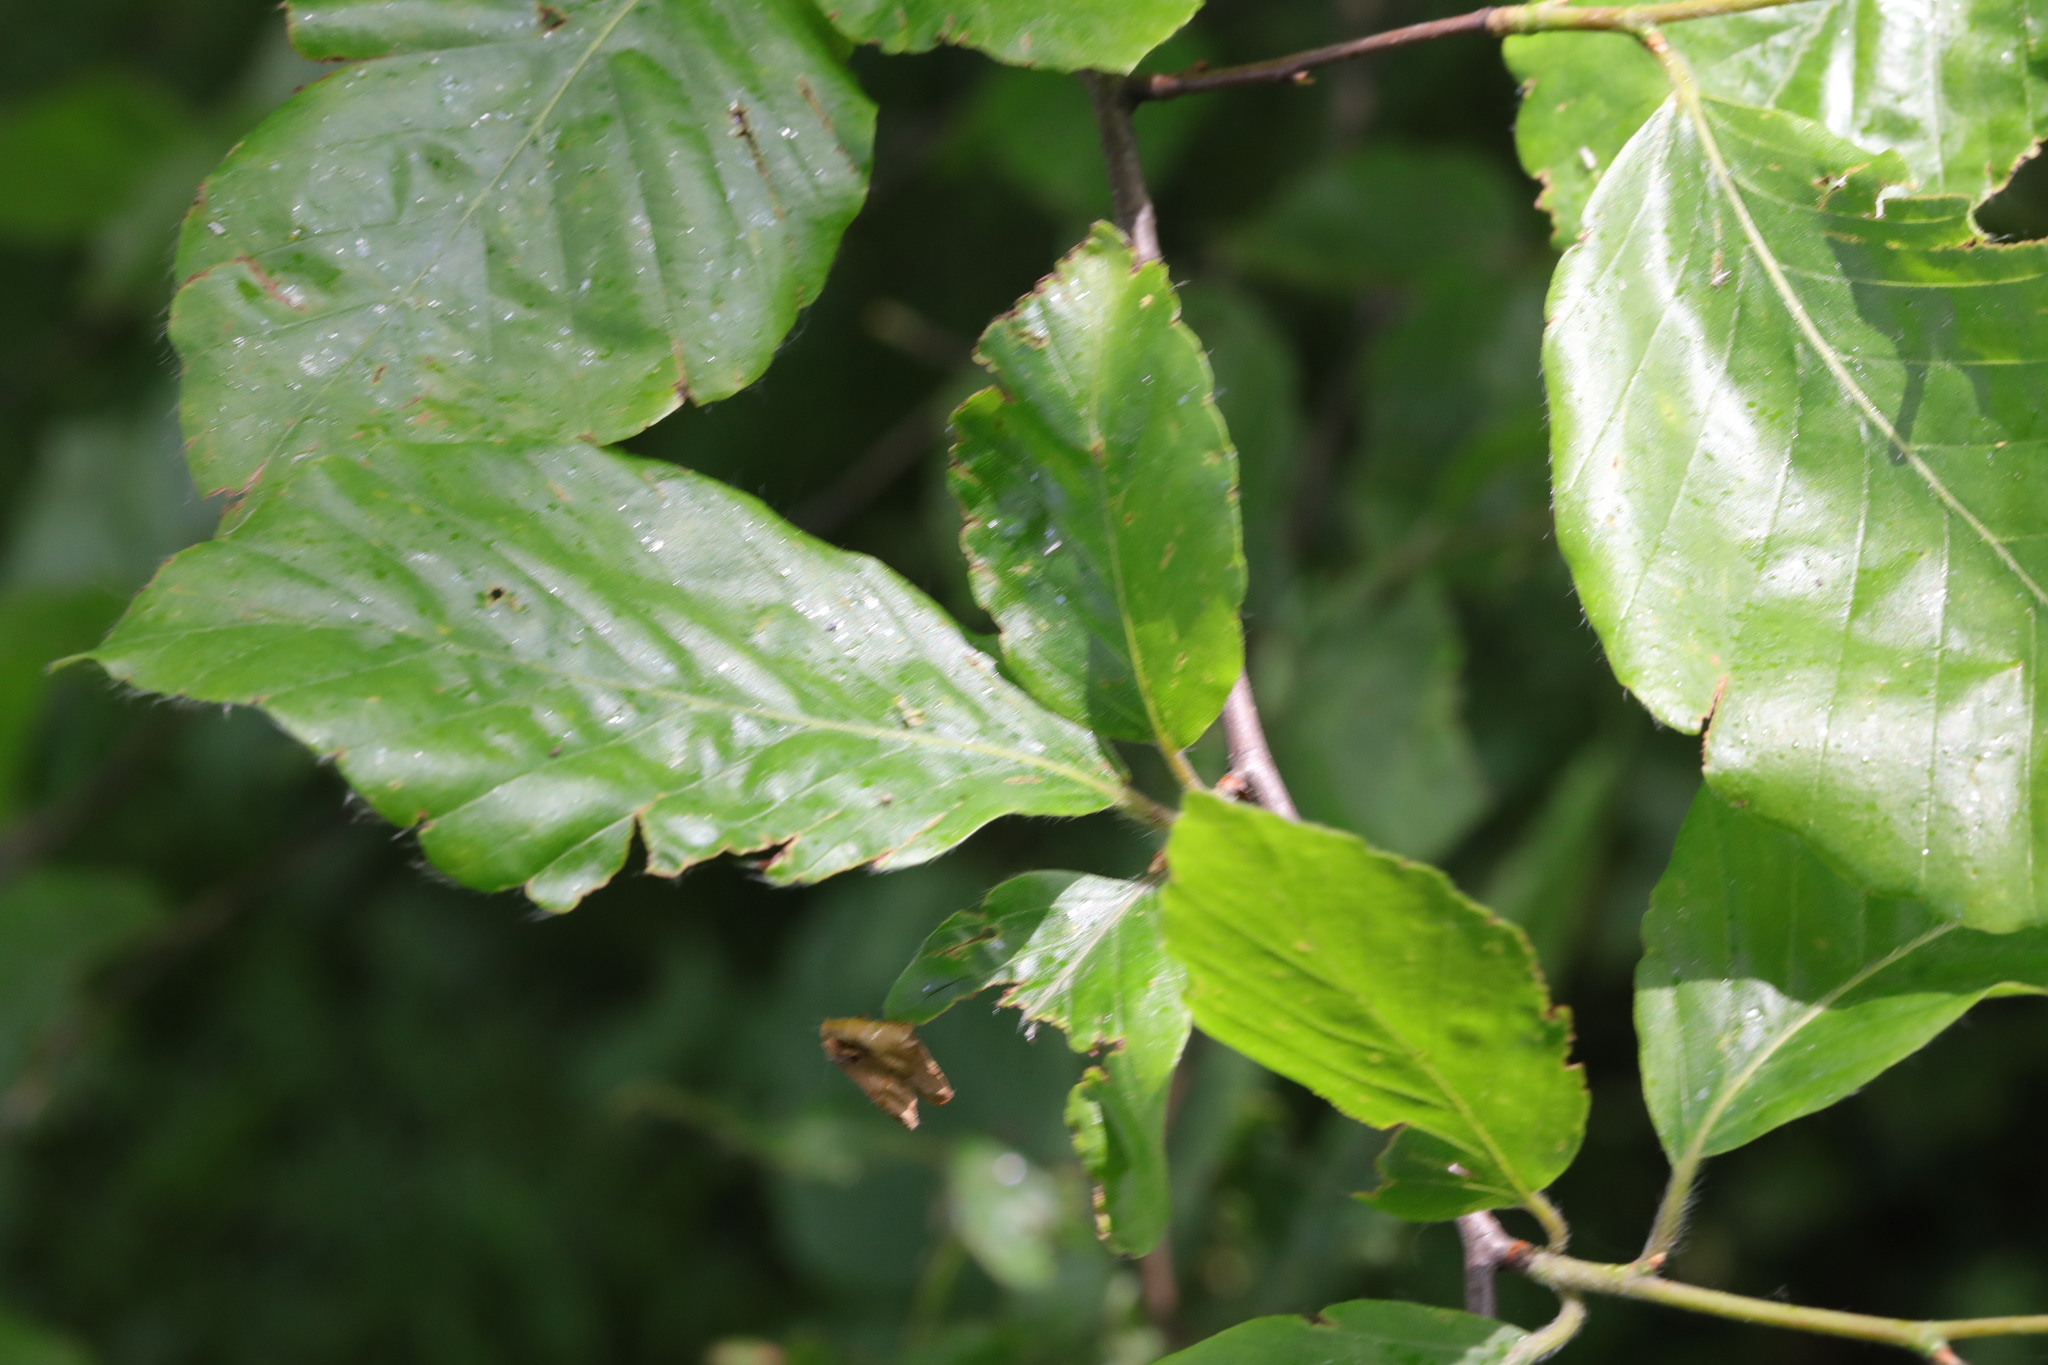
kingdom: Plantae
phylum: Tracheophyta
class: Magnoliopsida
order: Fagales
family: Fagaceae
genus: Fagus
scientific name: Fagus sylvatica
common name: Beech
